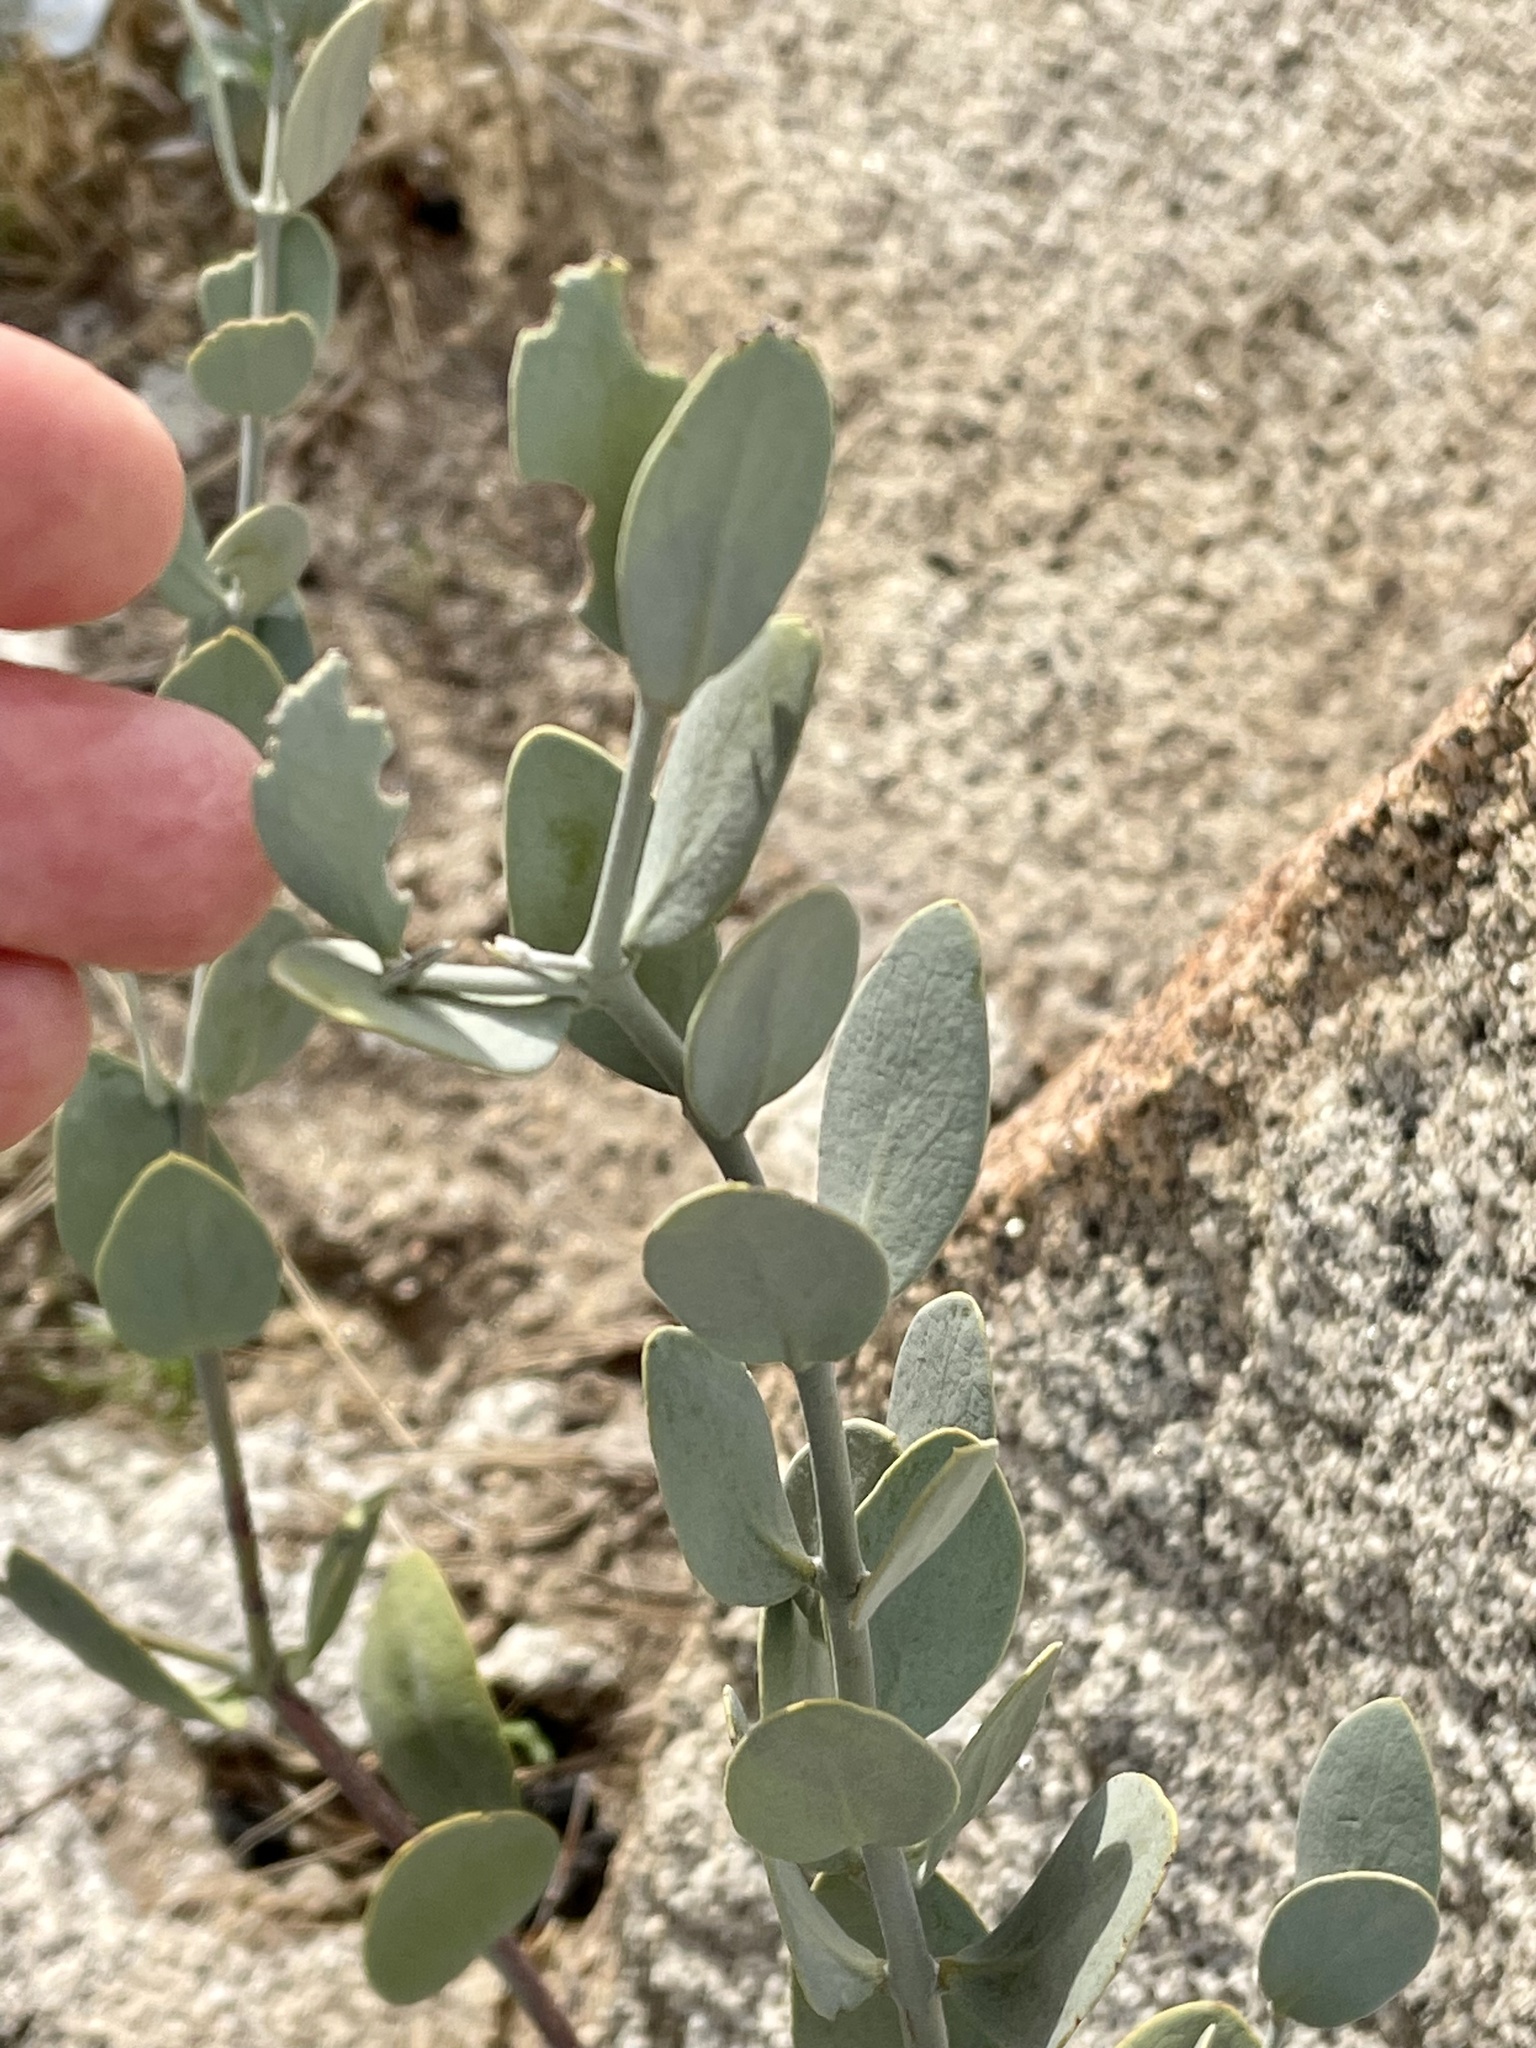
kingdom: Plantae
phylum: Tracheophyta
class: Magnoliopsida
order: Caryophyllales
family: Simmondsiaceae
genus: Simmondsia
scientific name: Simmondsia chinensis
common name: Jojoba
